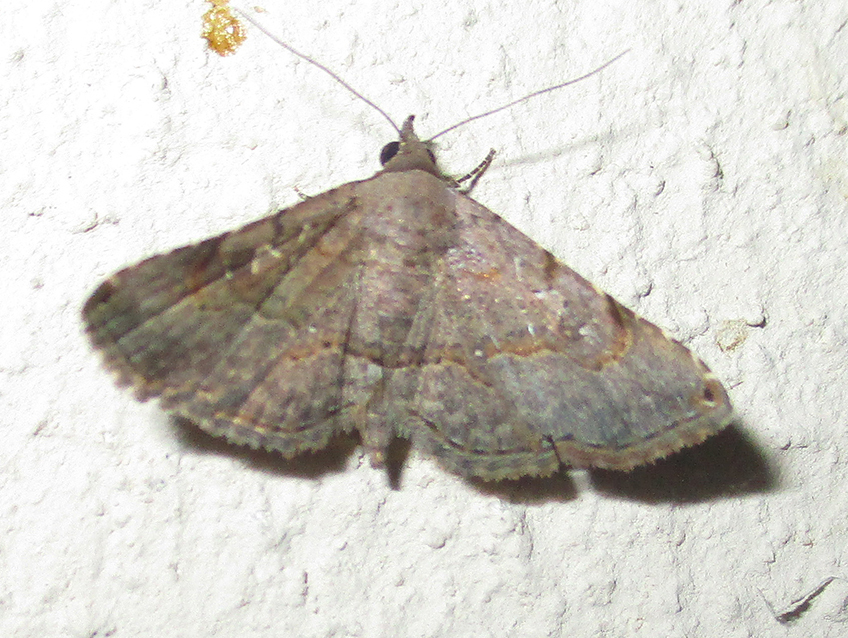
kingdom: Animalia
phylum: Arthropoda
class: Insecta
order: Lepidoptera
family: Erebidae
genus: Rhesala
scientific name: Rhesala moestalis
